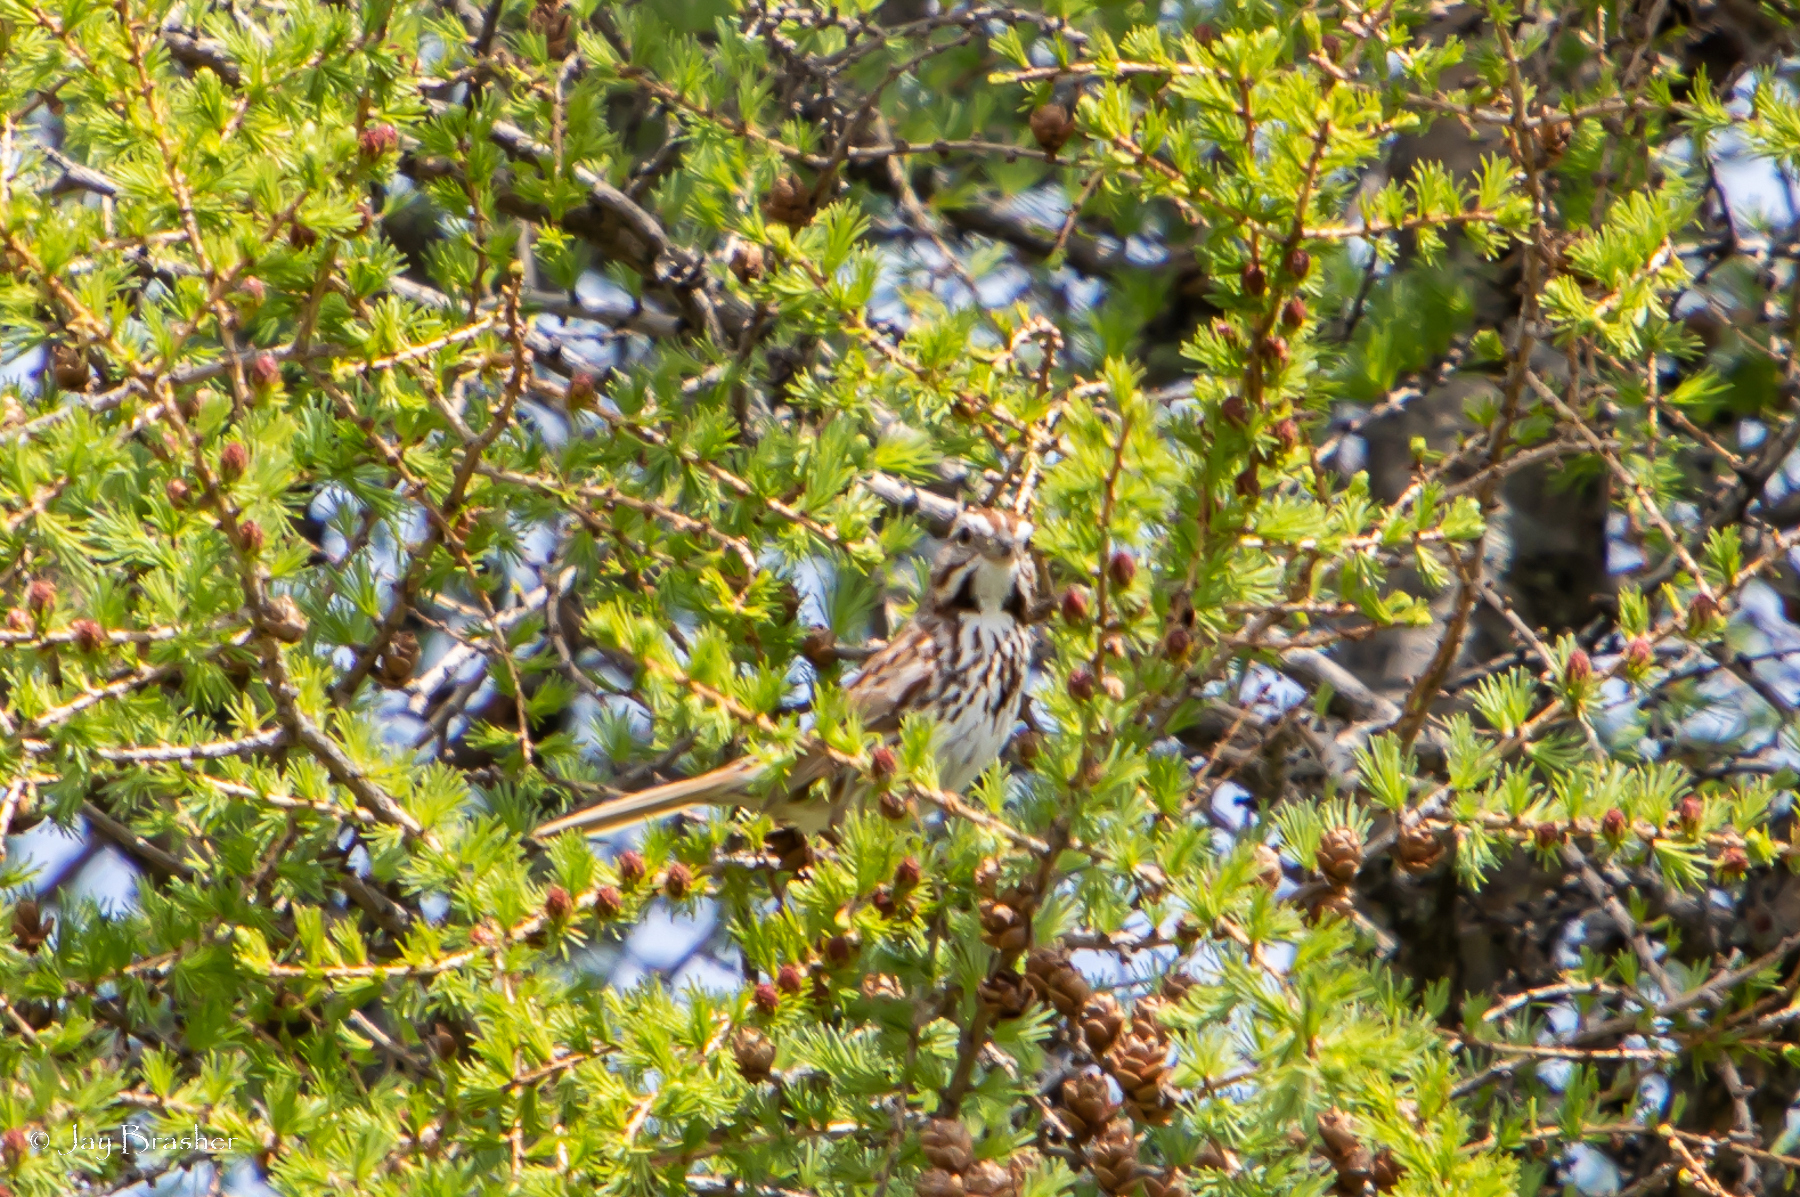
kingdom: Animalia
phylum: Chordata
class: Aves
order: Passeriformes
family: Passerellidae
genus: Melospiza
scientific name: Melospiza melodia
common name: Song sparrow
